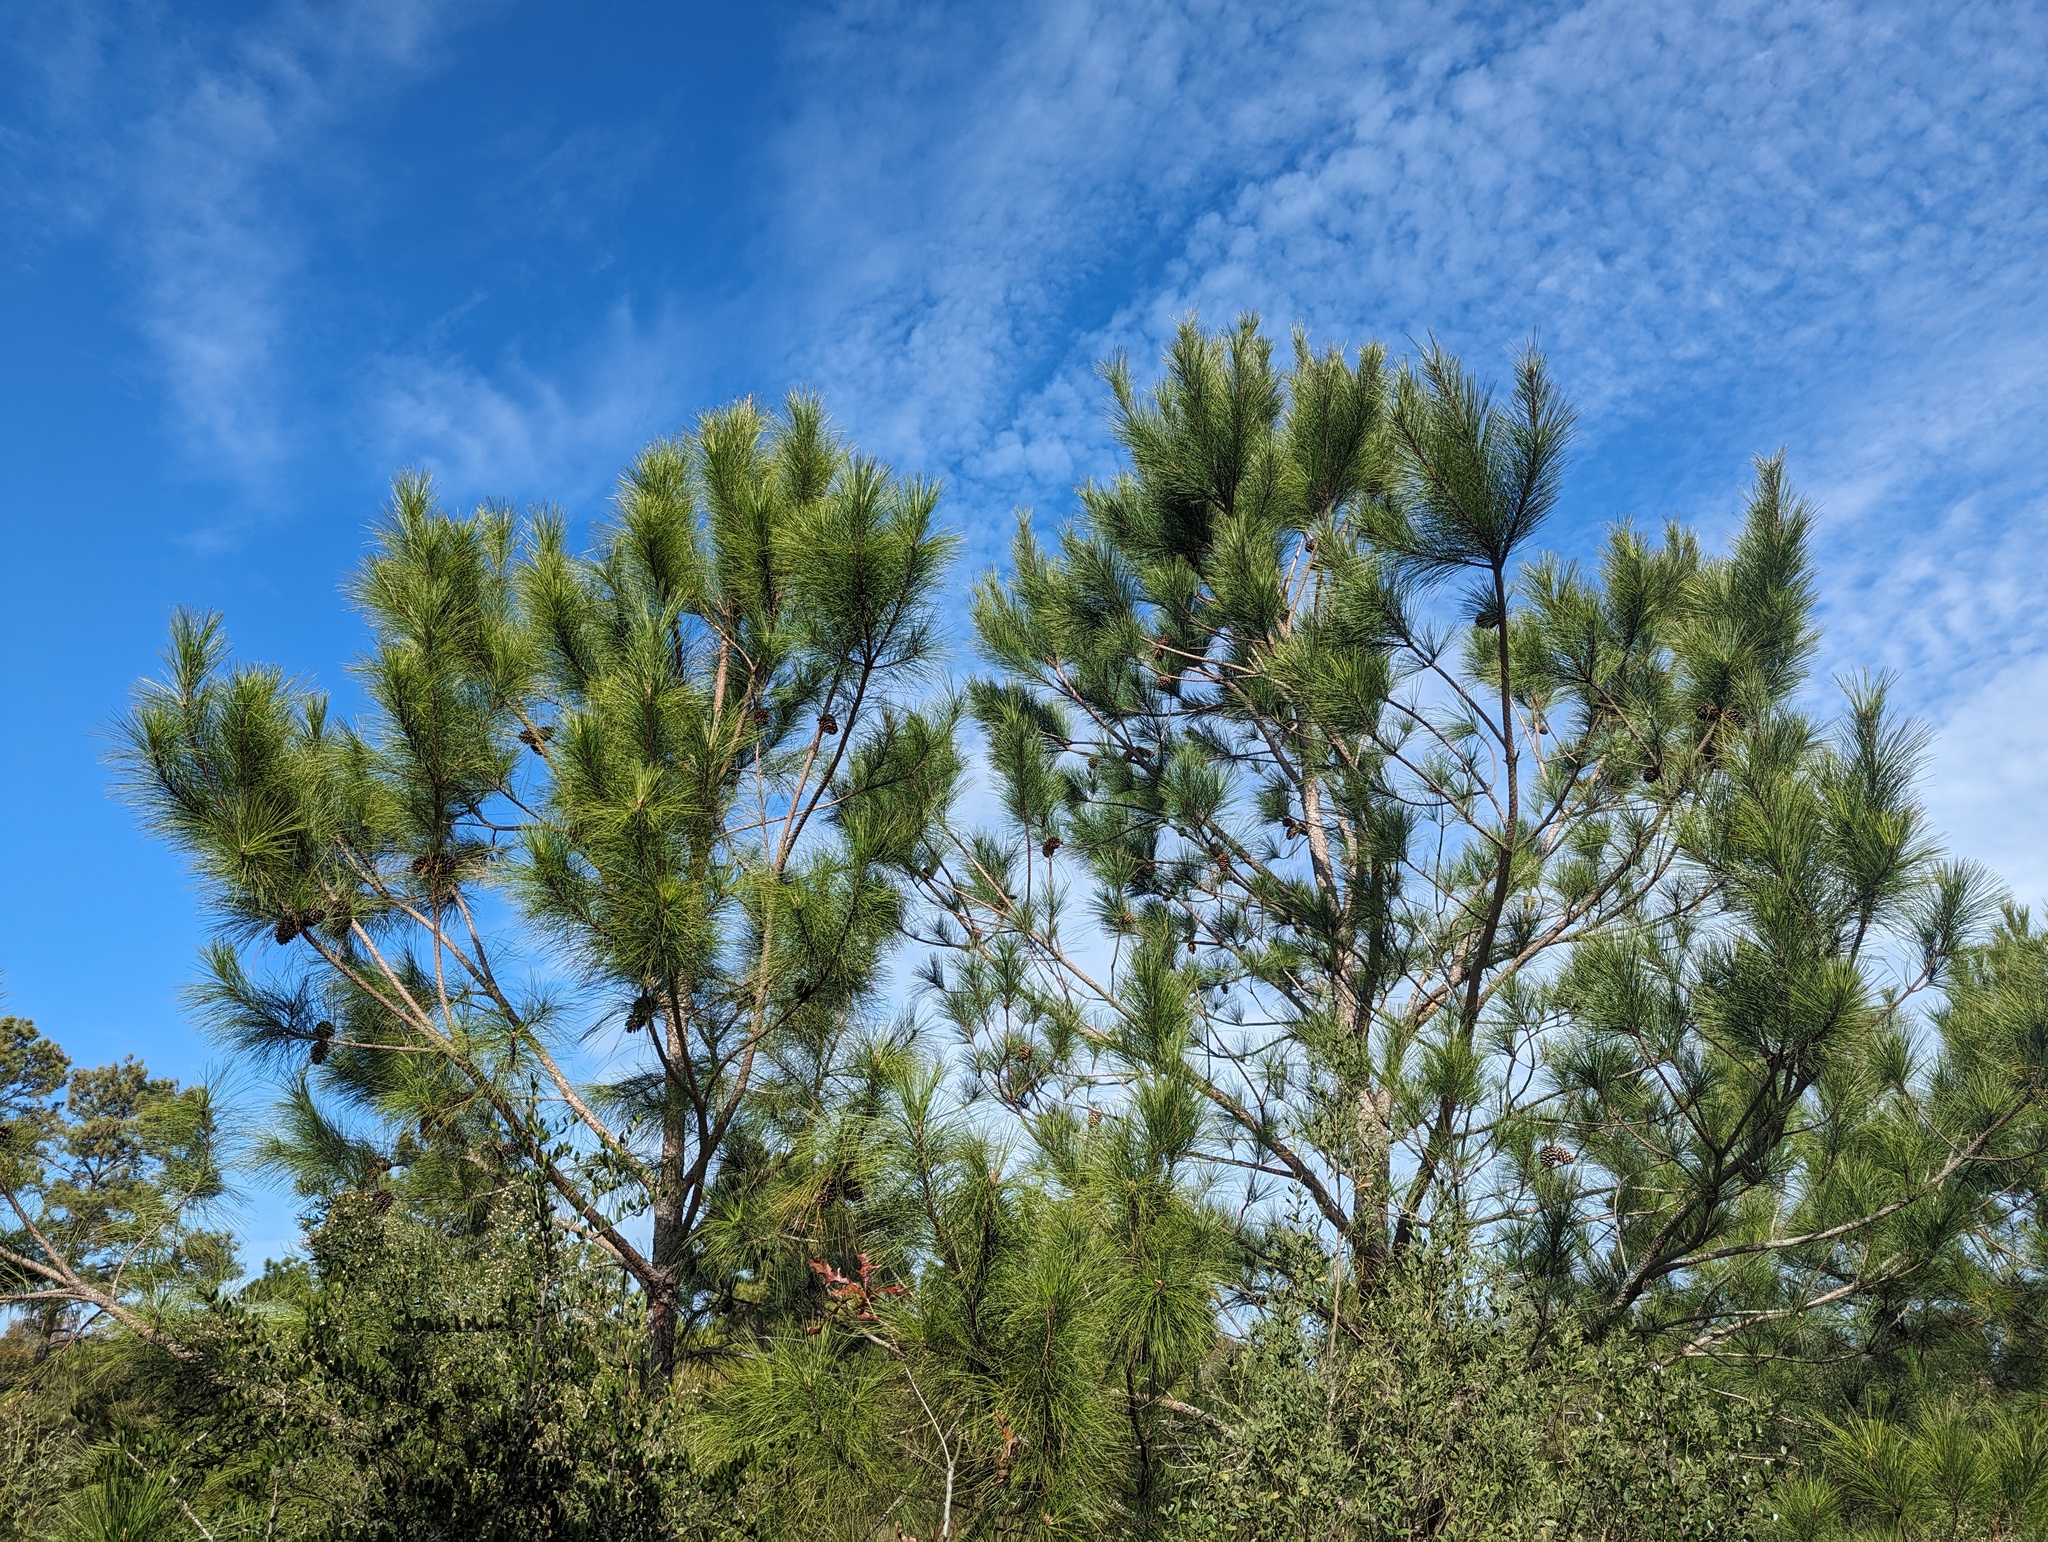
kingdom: Plantae
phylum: Tracheophyta
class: Pinopsida
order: Pinales
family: Pinaceae
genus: Pinus
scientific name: Pinus taeda
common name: Loblolly pine
